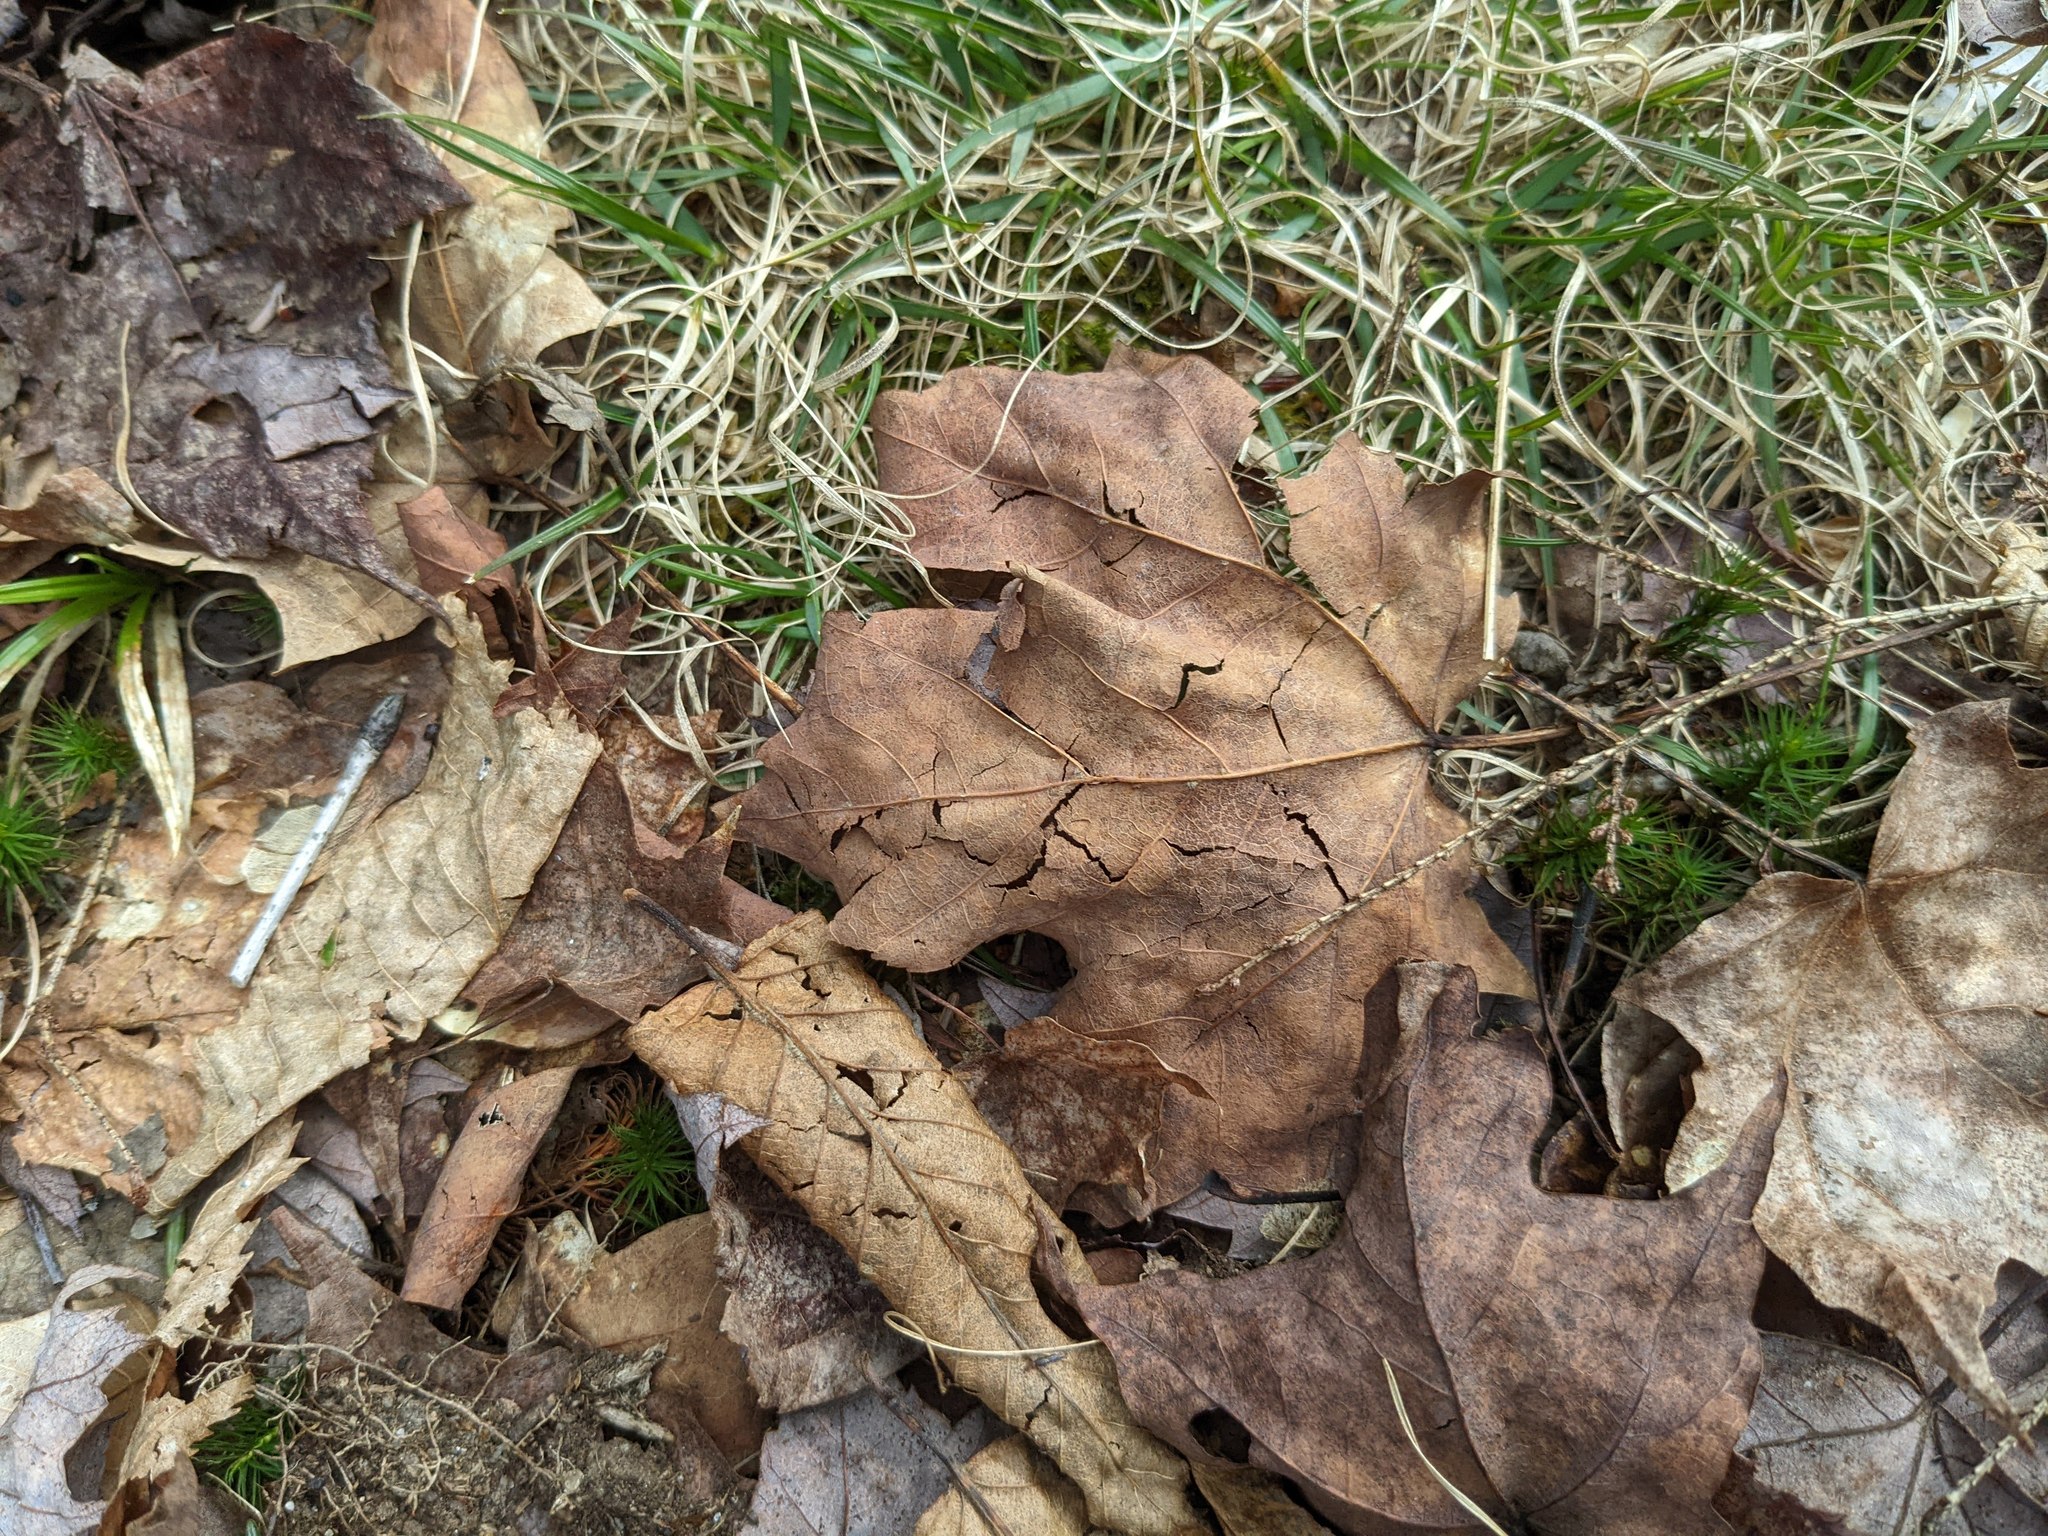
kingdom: Plantae
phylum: Tracheophyta
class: Liliopsida
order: Poales
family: Poaceae
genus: Danthonia
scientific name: Danthonia spicata
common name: Common wild oatgrass
